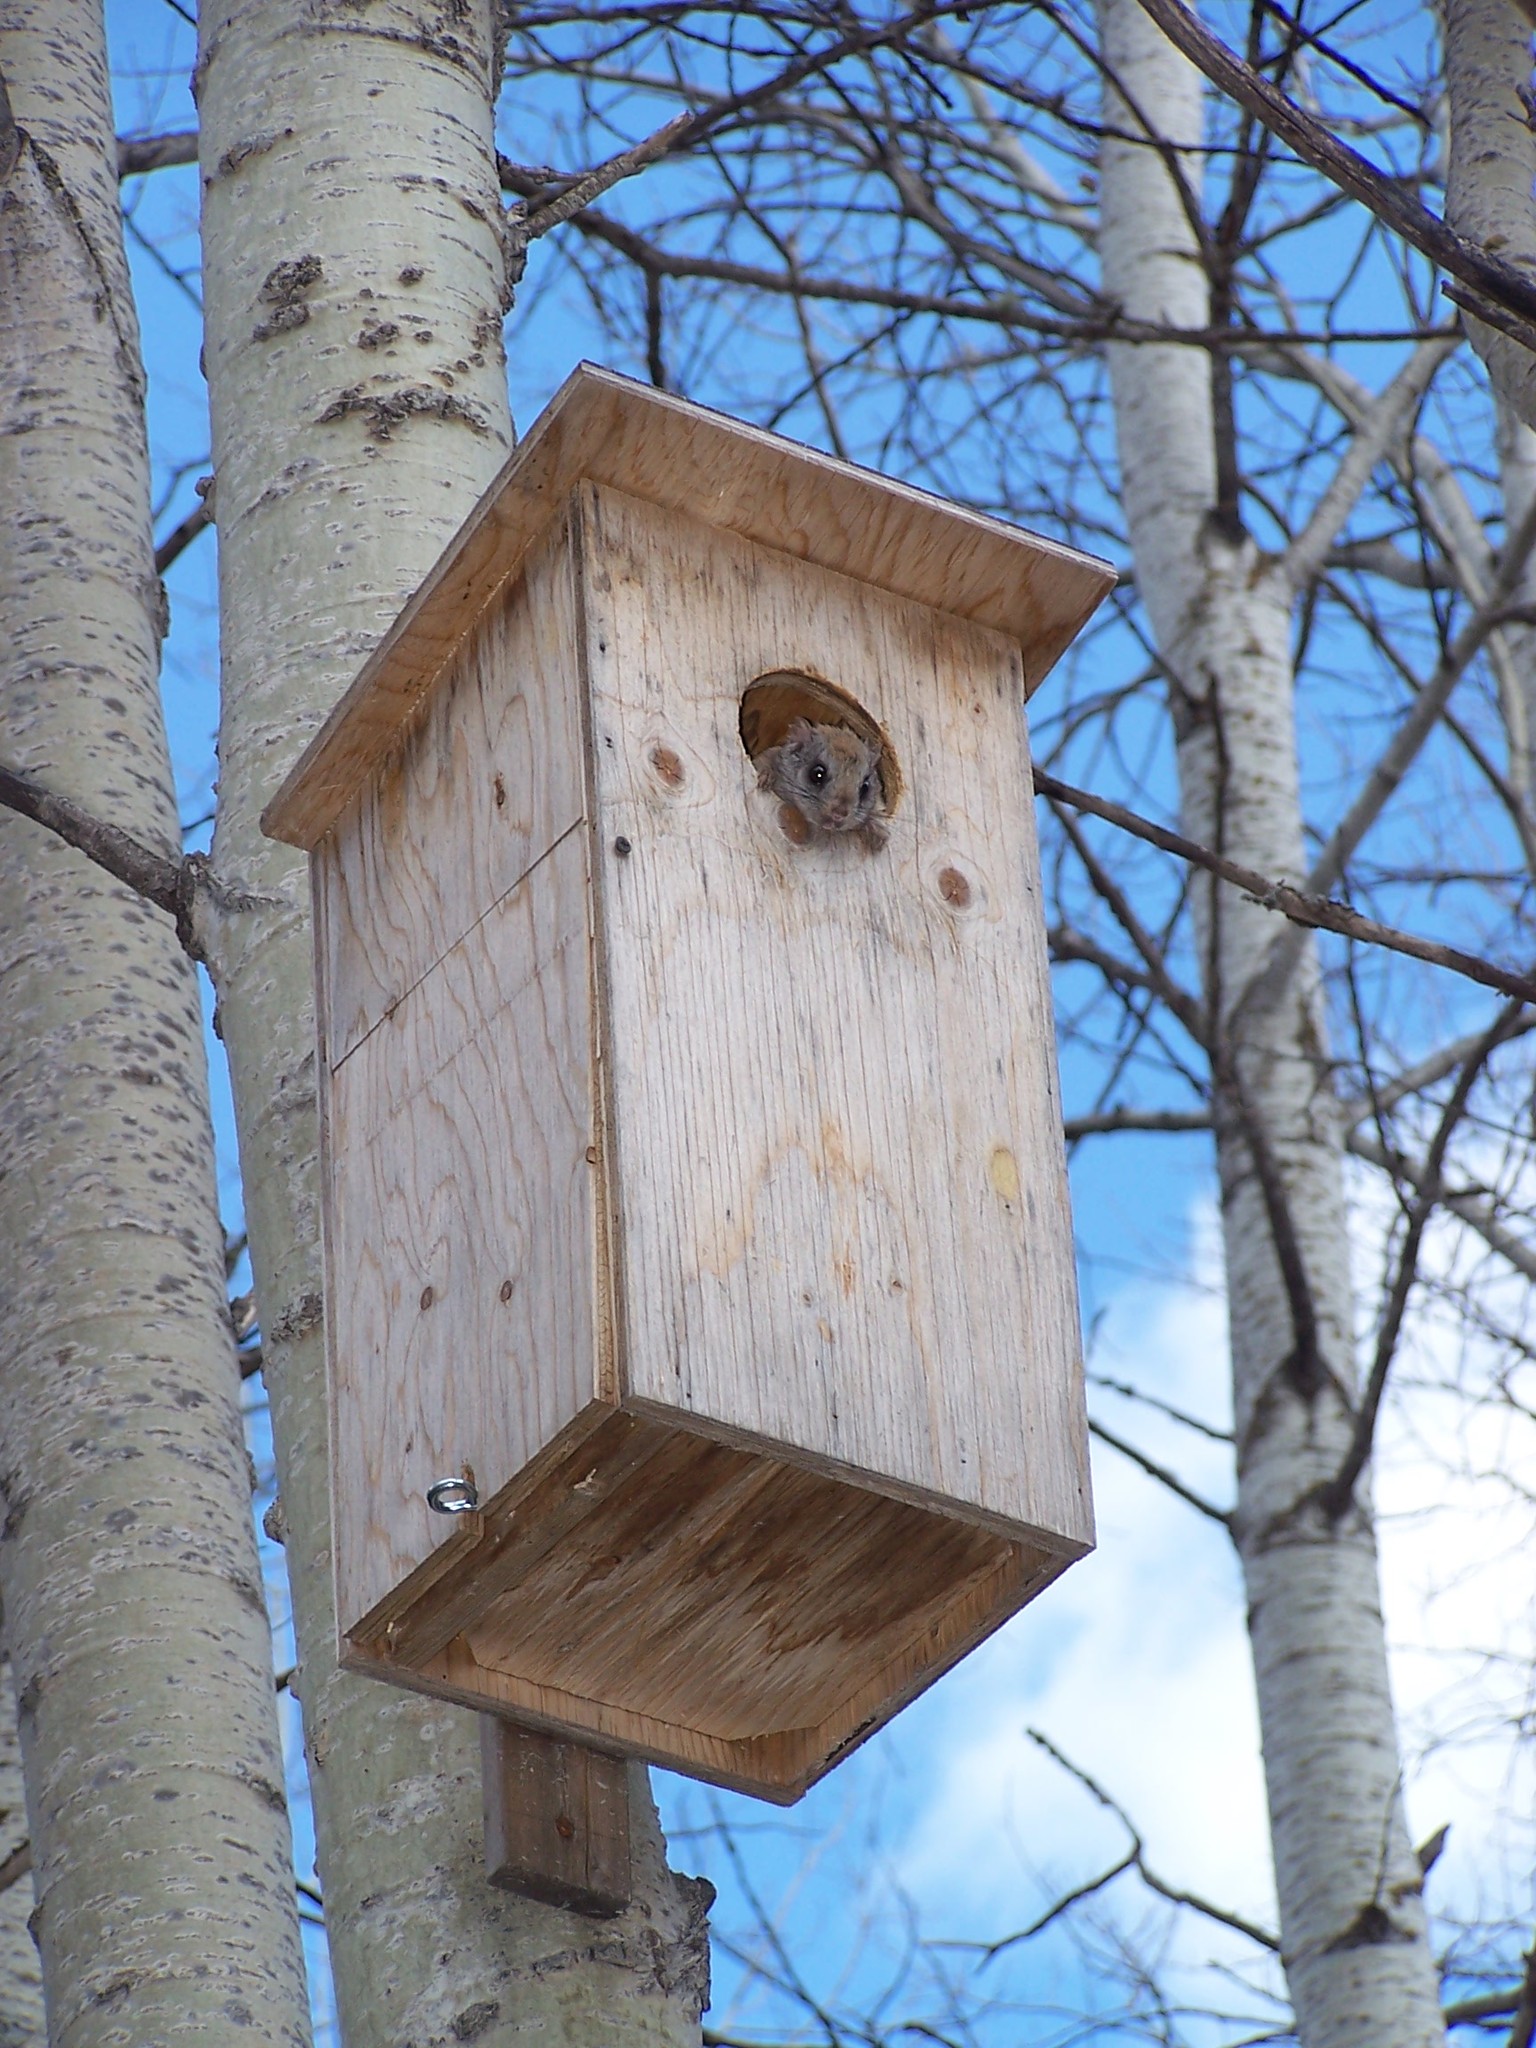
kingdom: Animalia
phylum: Chordata
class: Mammalia
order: Rodentia
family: Sciuridae
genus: Glaucomys
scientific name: Glaucomys sabrinus
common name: Northern flying squirrel
